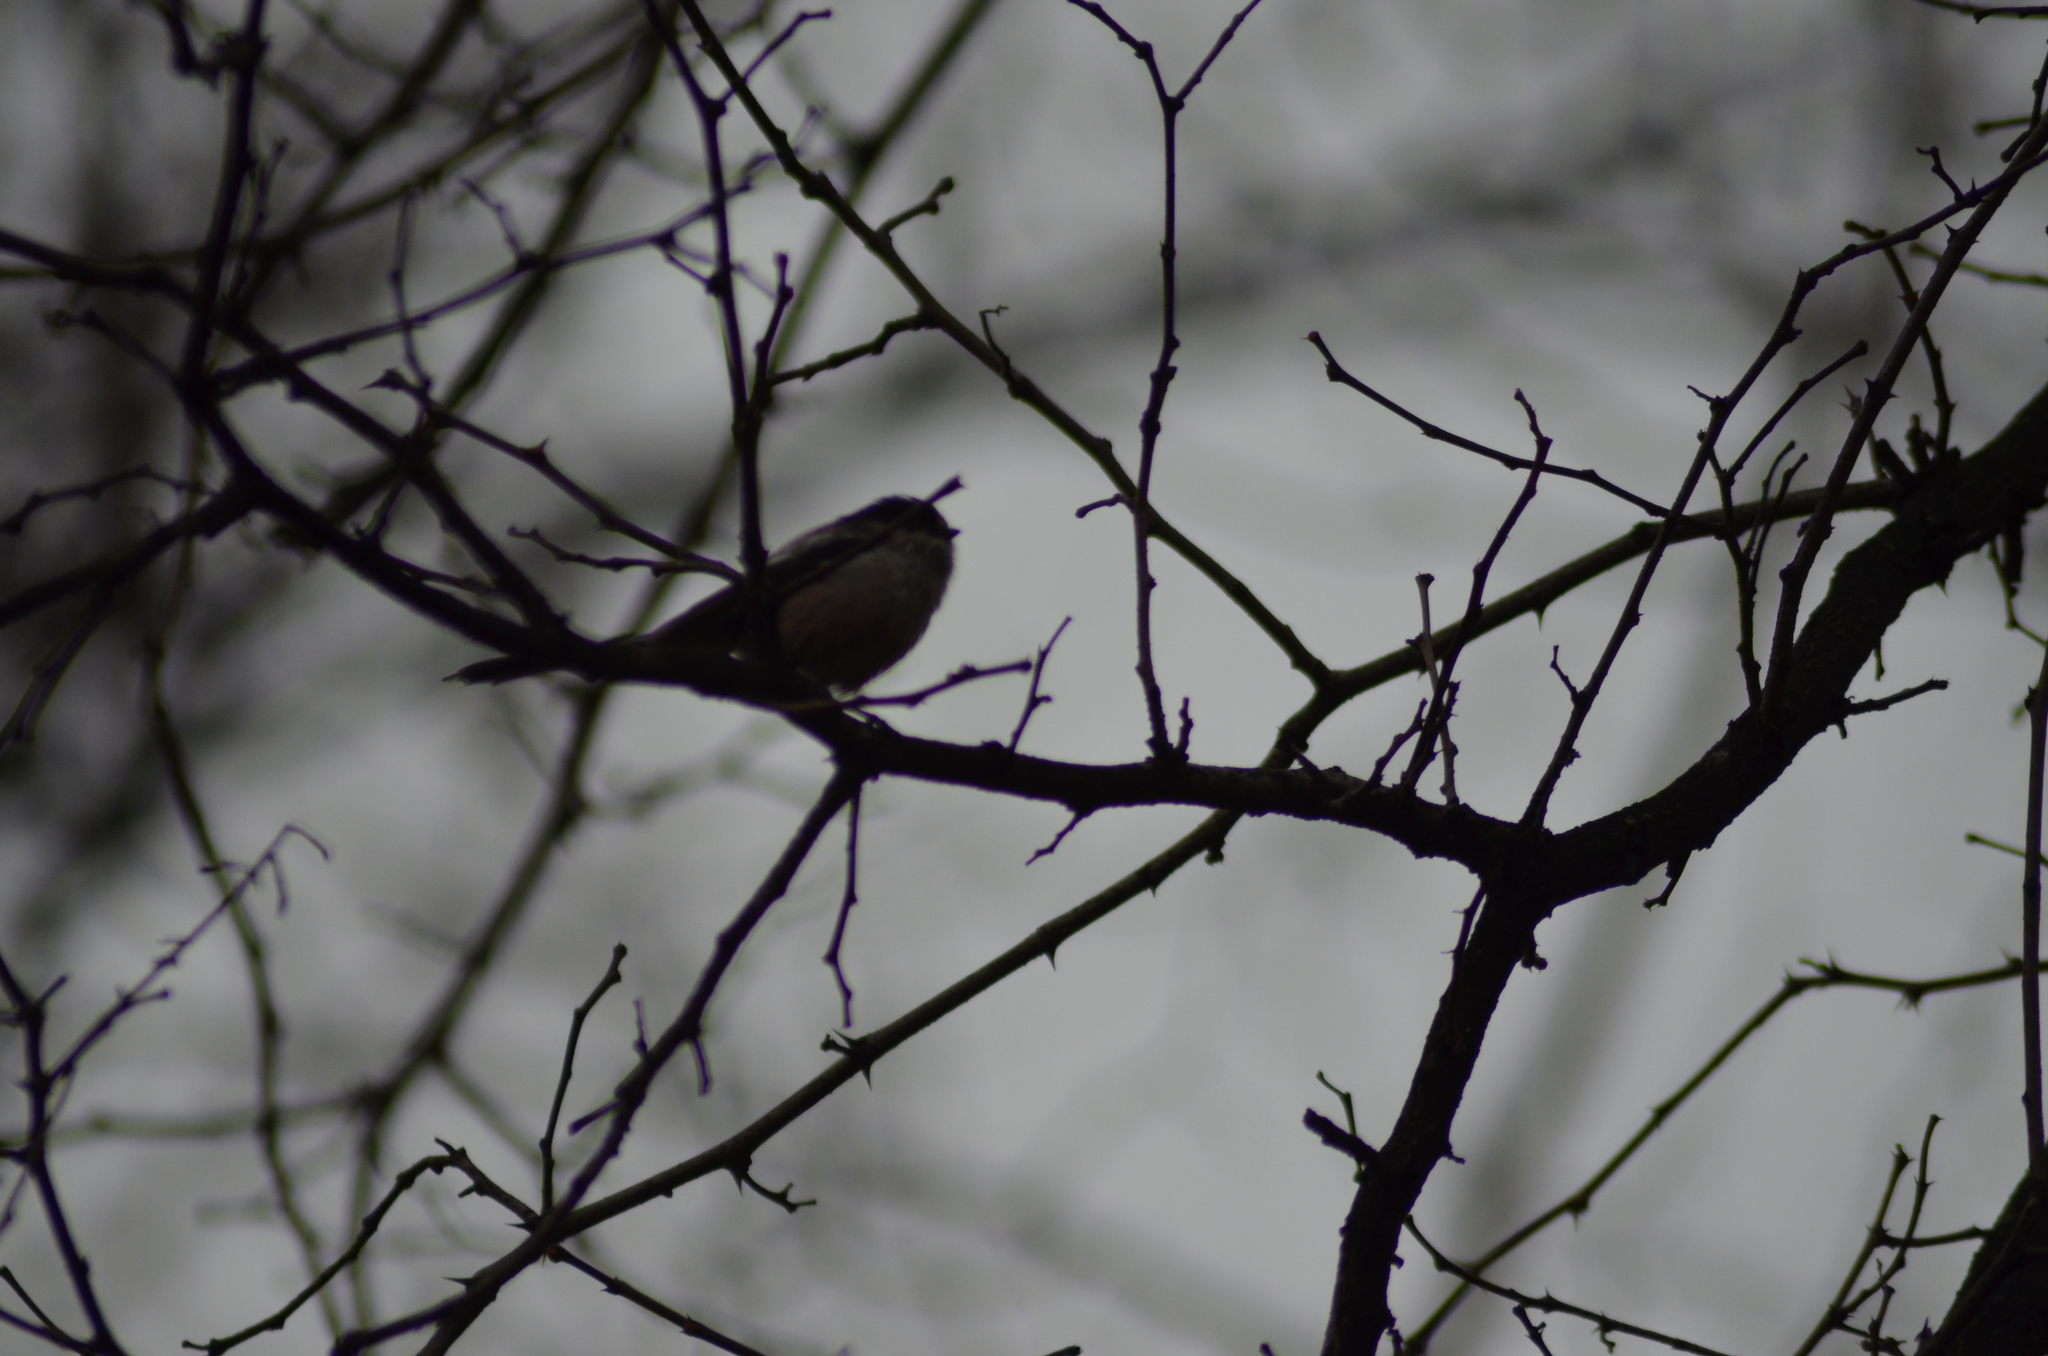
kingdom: Animalia
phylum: Chordata
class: Aves
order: Passeriformes
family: Aegithalidae
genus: Aegithalos
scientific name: Aegithalos caudatus
